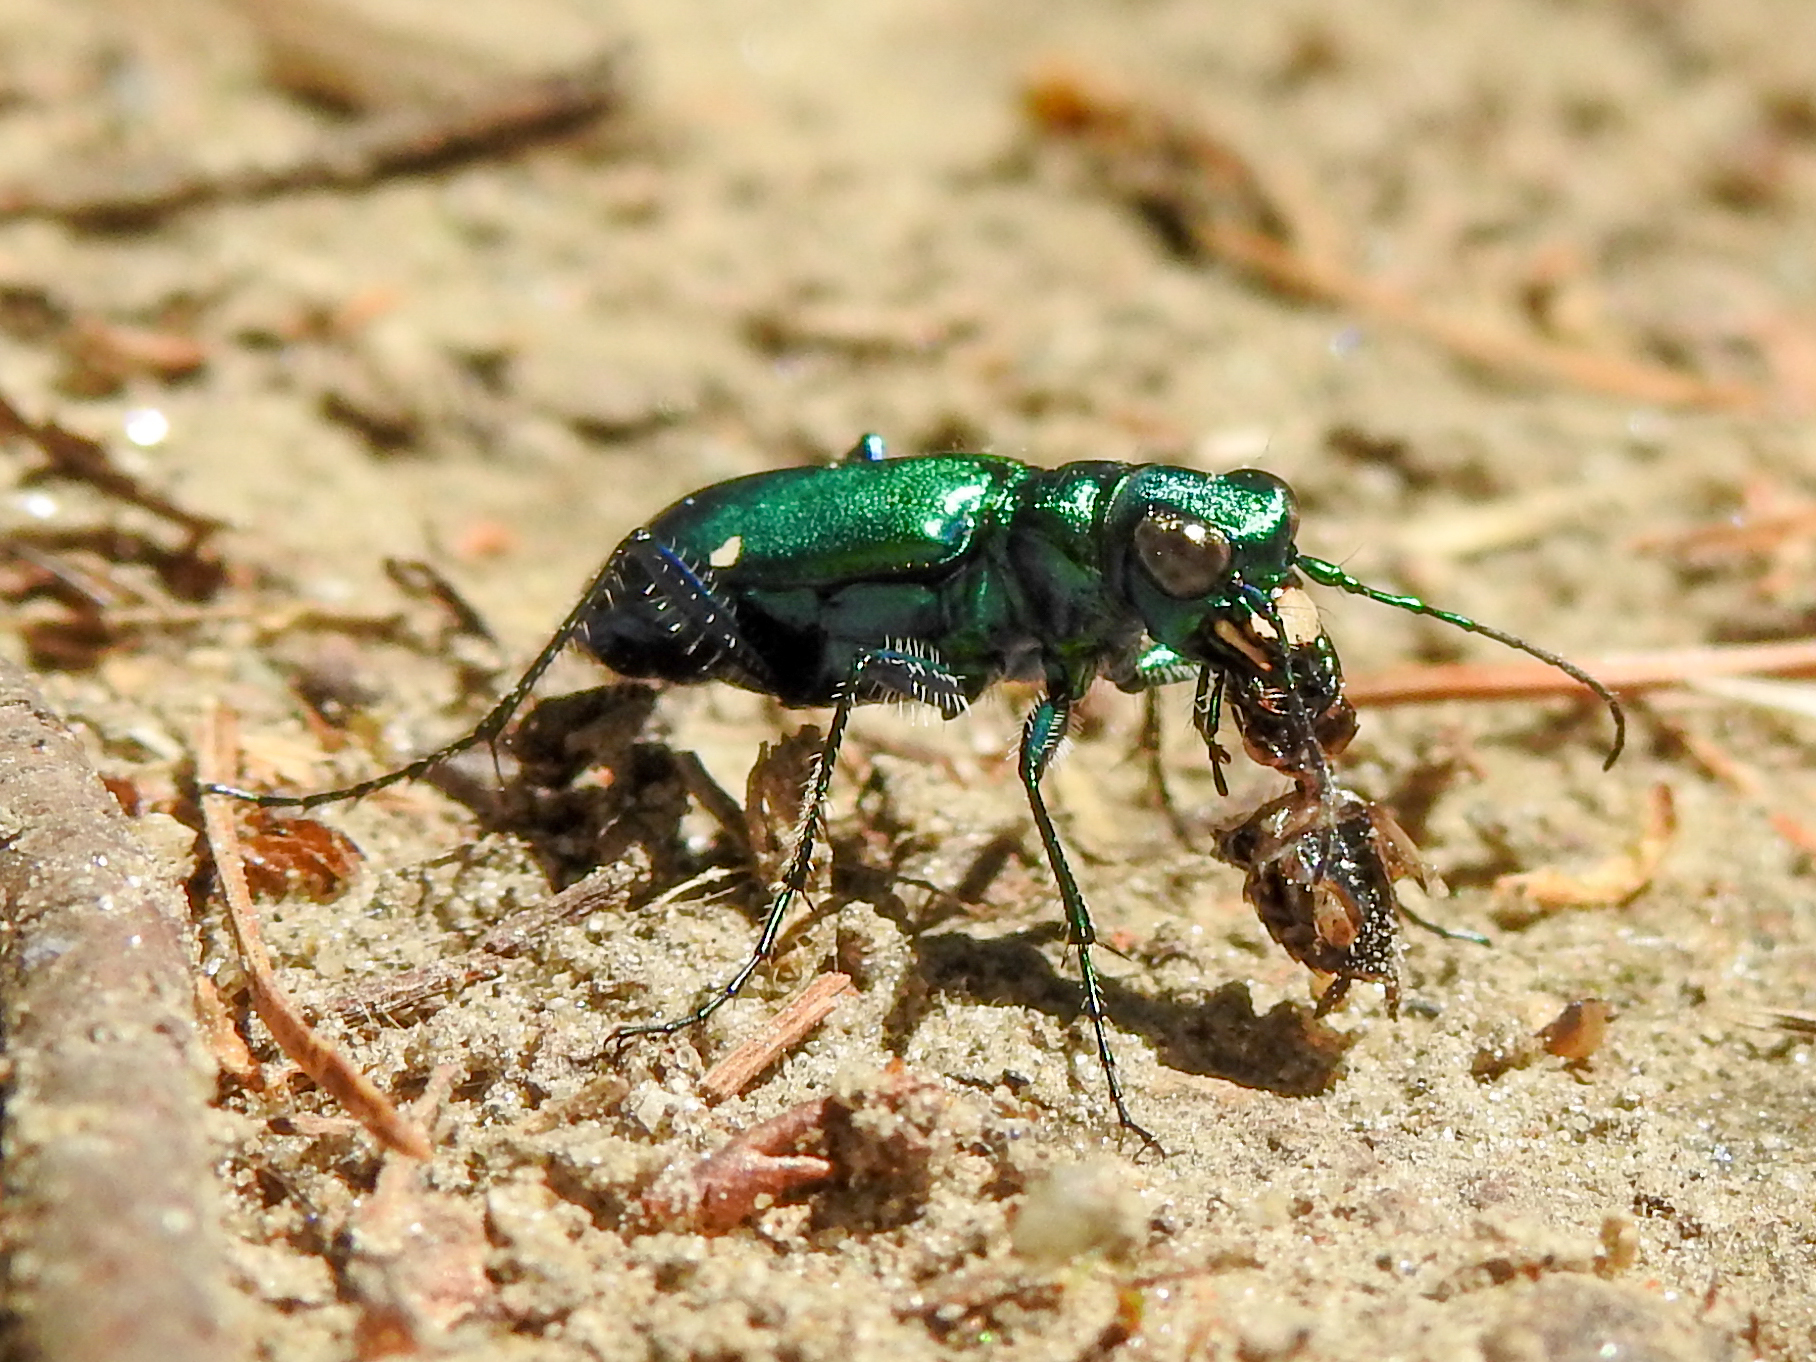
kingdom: Animalia
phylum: Arthropoda
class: Insecta
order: Coleoptera
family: Carabidae
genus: Cicindela
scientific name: Cicindela sexguttata
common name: Six-spotted tiger beetle
